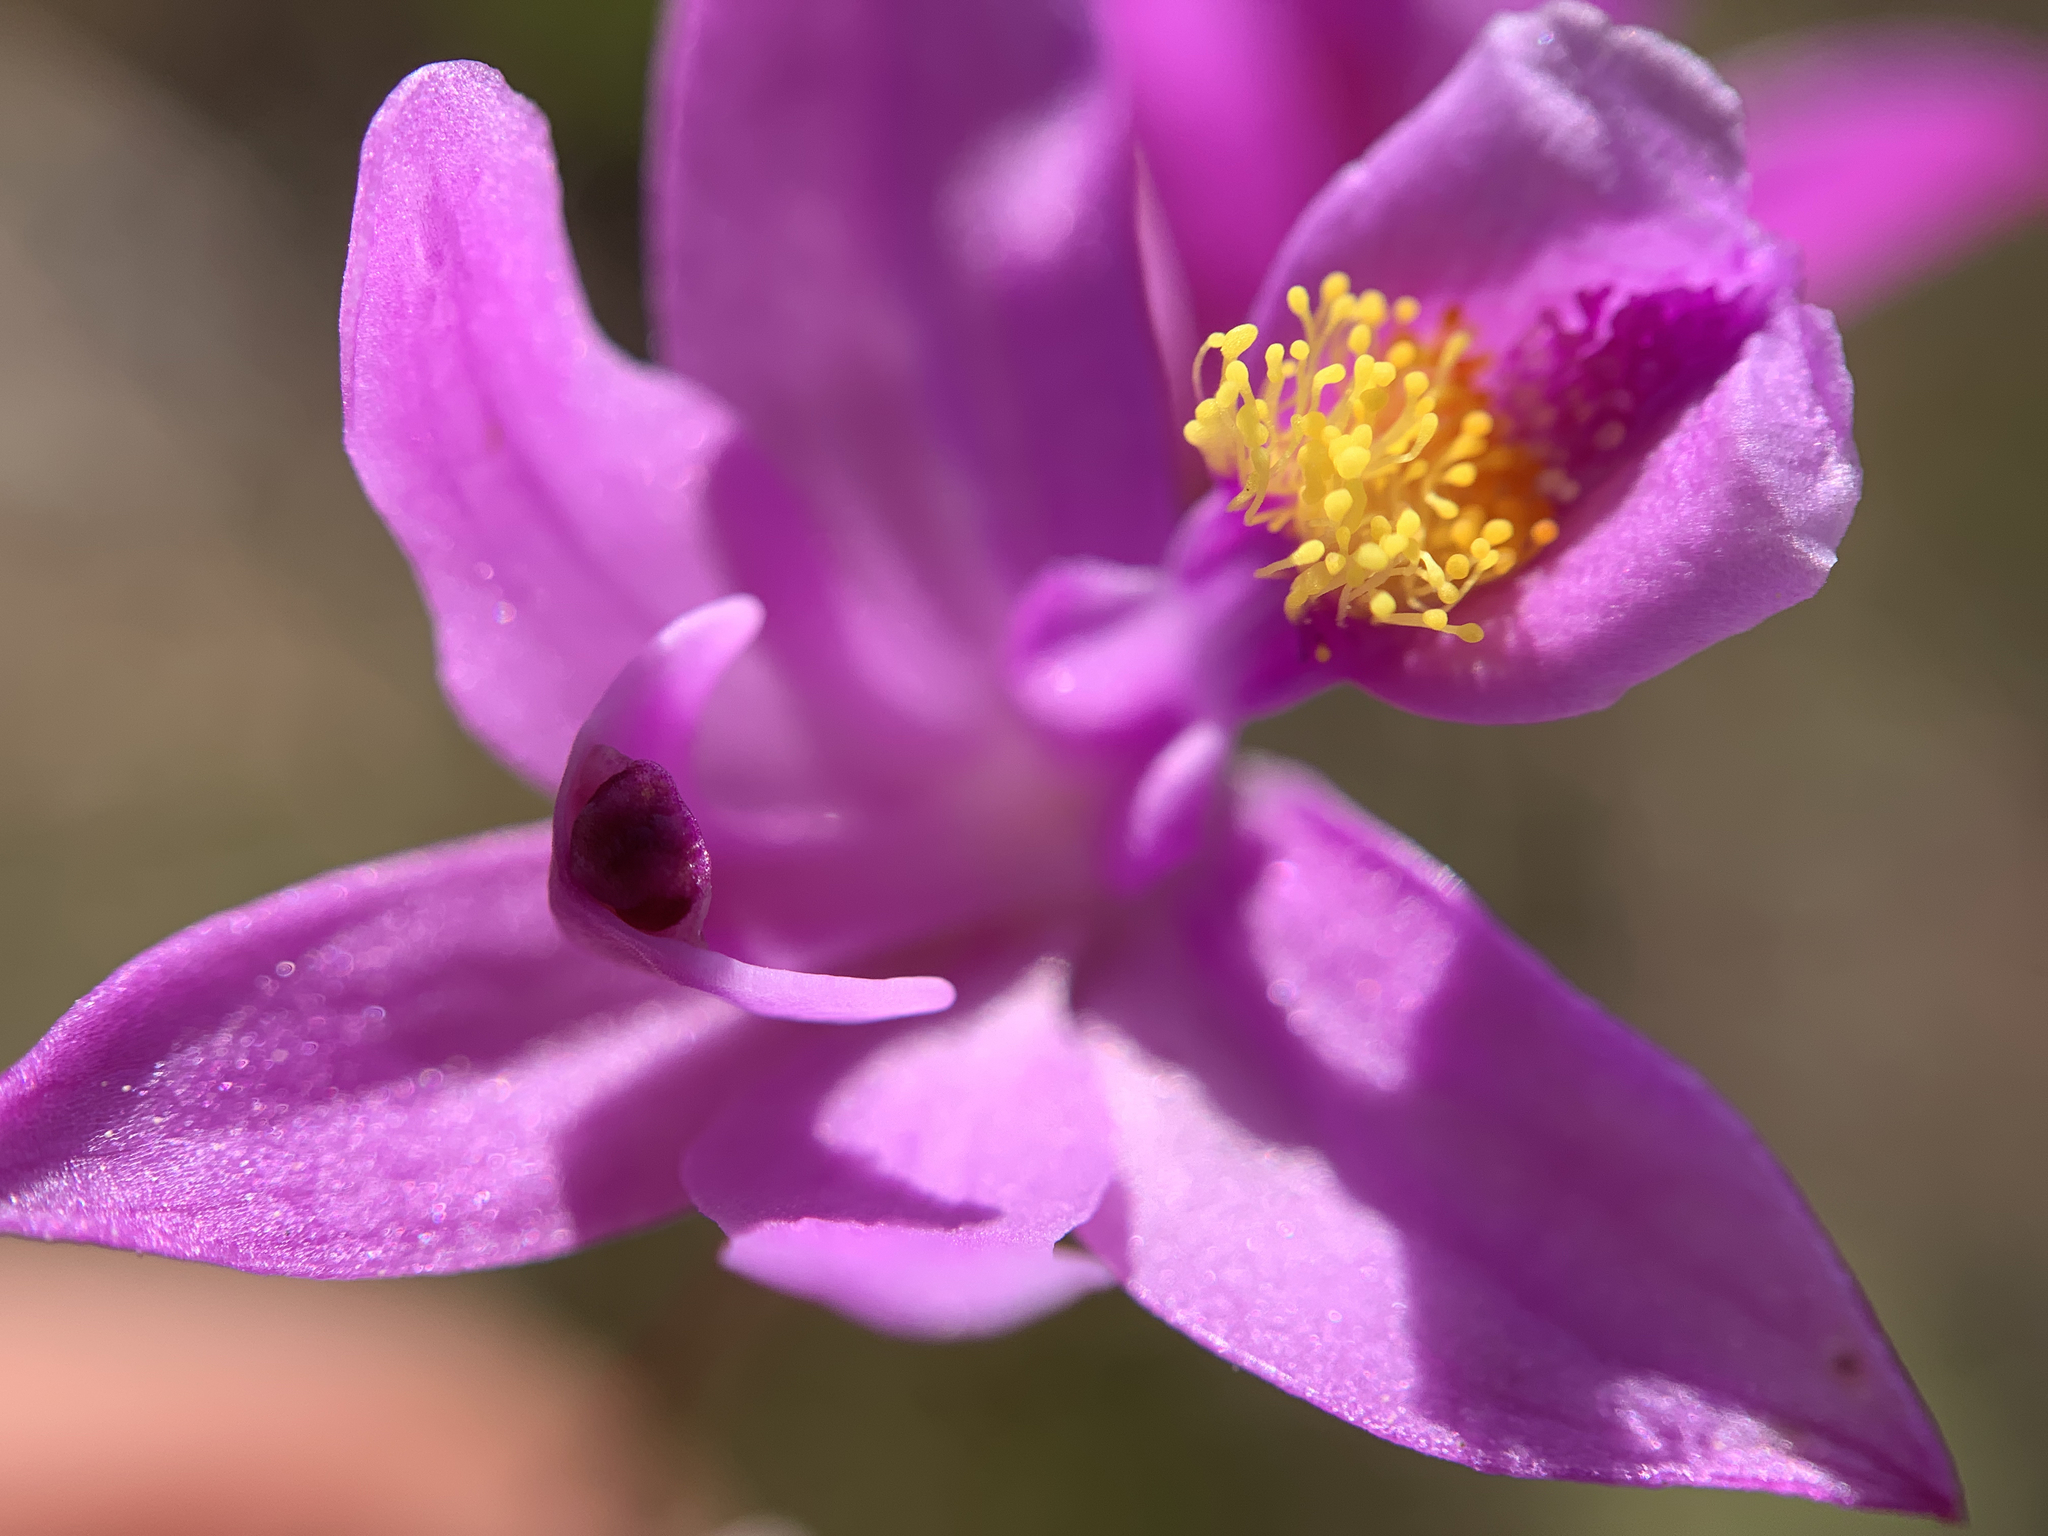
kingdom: Plantae
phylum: Tracheophyta
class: Liliopsida
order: Asparagales
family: Orchidaceae
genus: Calopogon
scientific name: Calopogon barbatus
